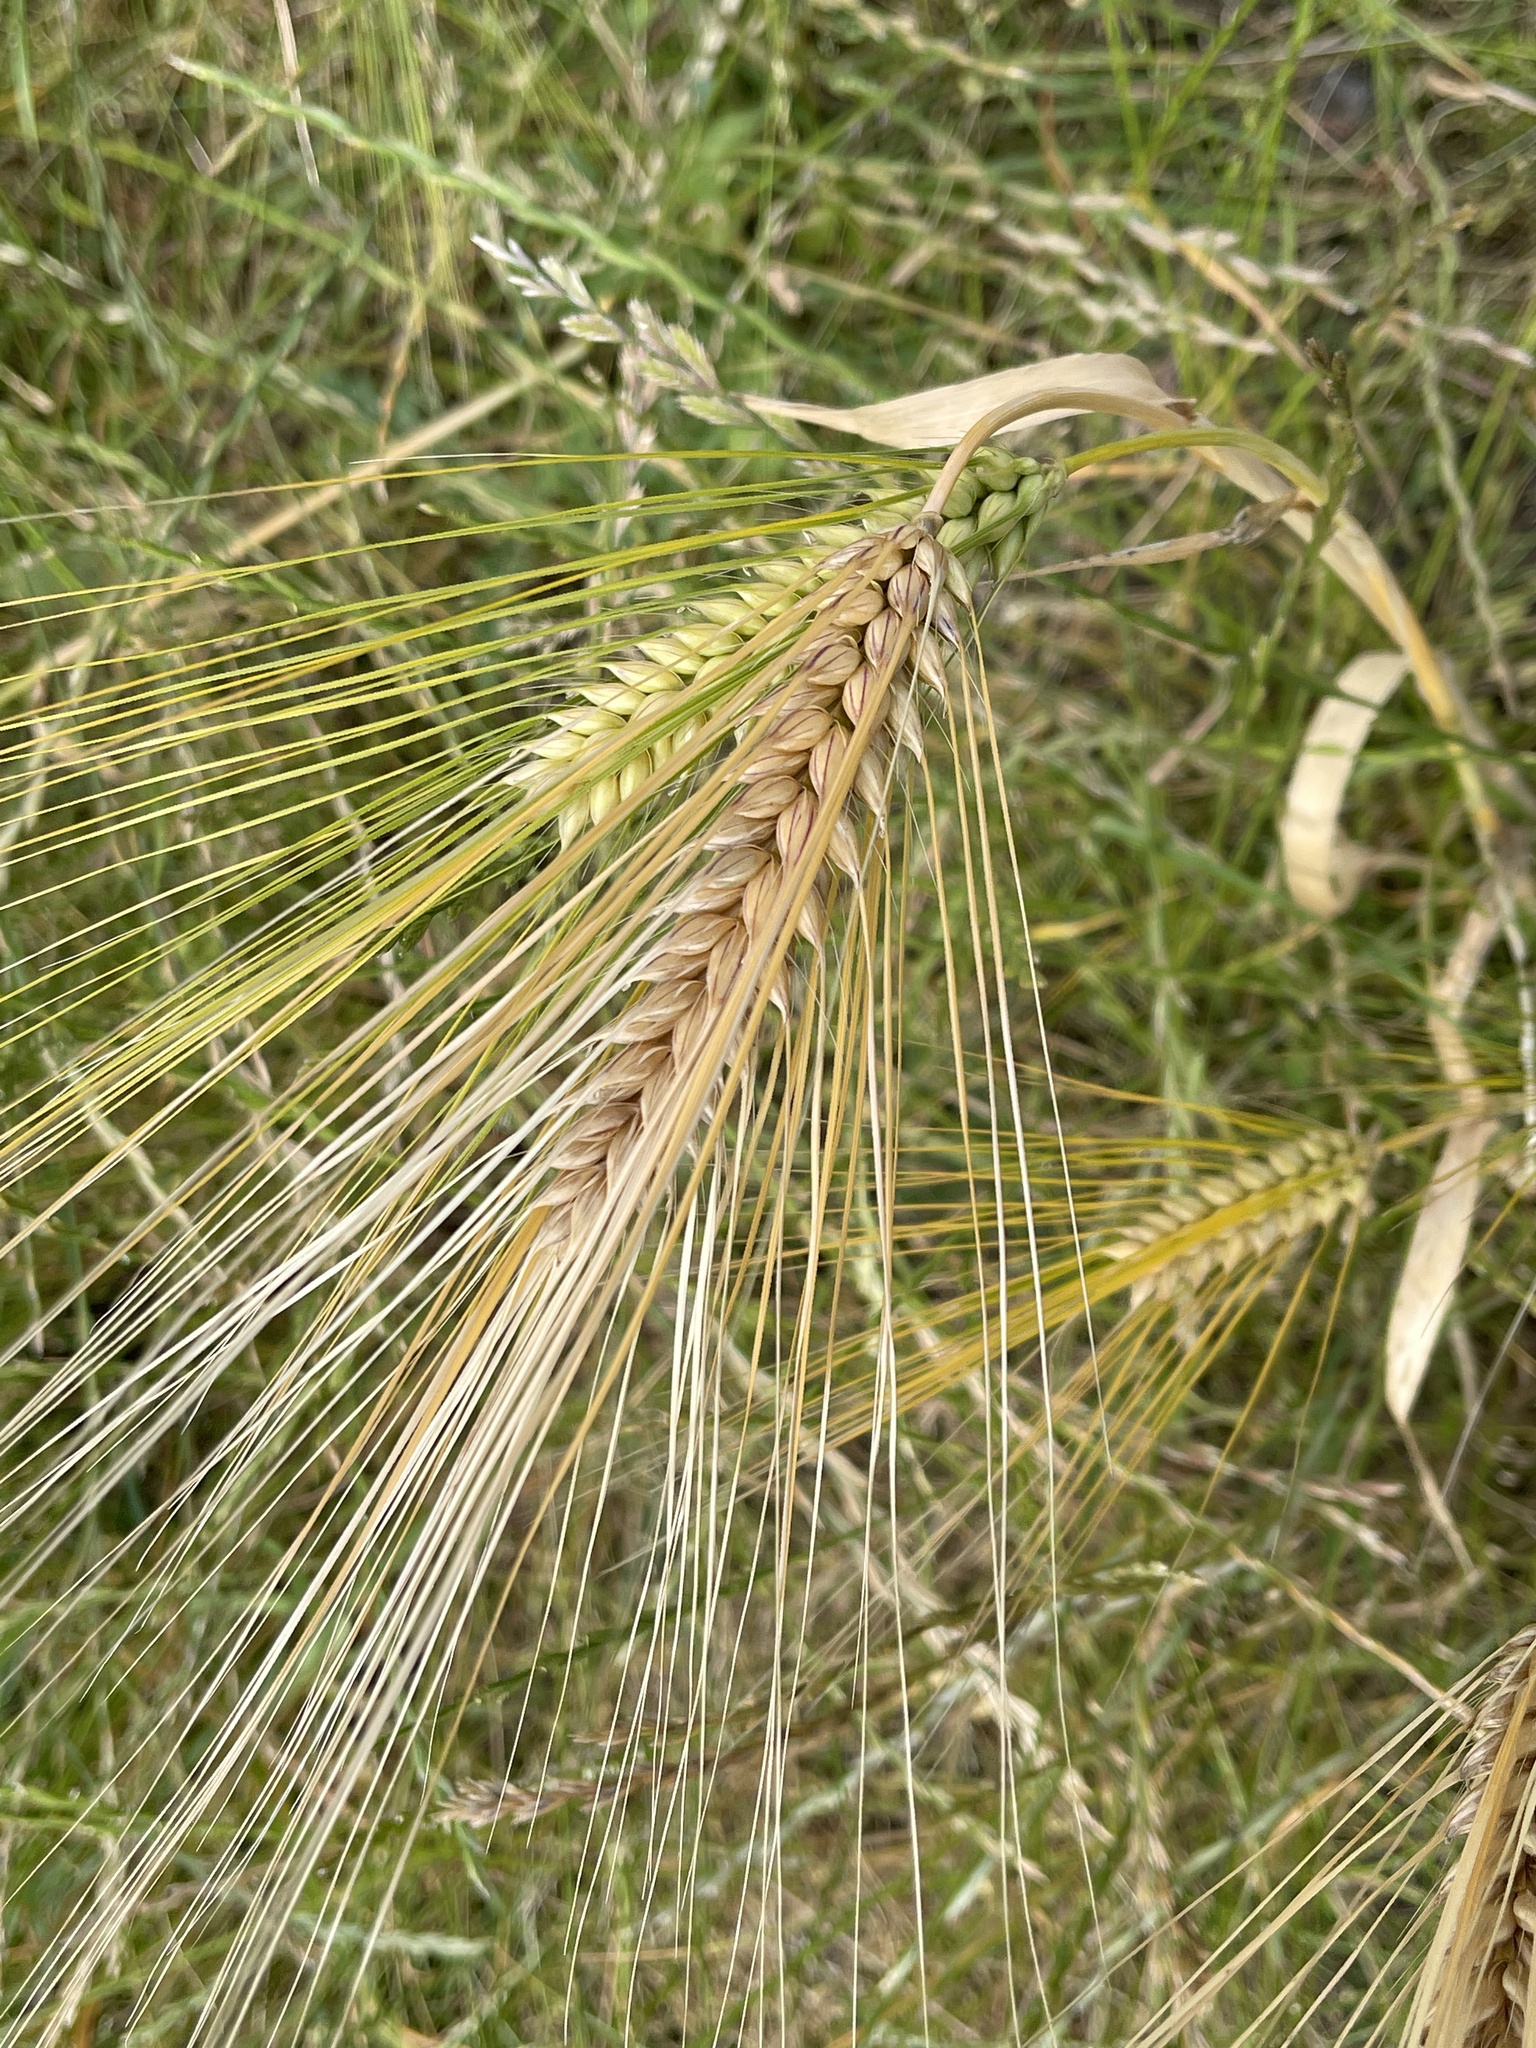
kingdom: Plantae
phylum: Tracheophyta
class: Liliopsida
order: Poales
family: Poaceae
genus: Hordeum
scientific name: Hordeum vulgare
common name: Common barley
